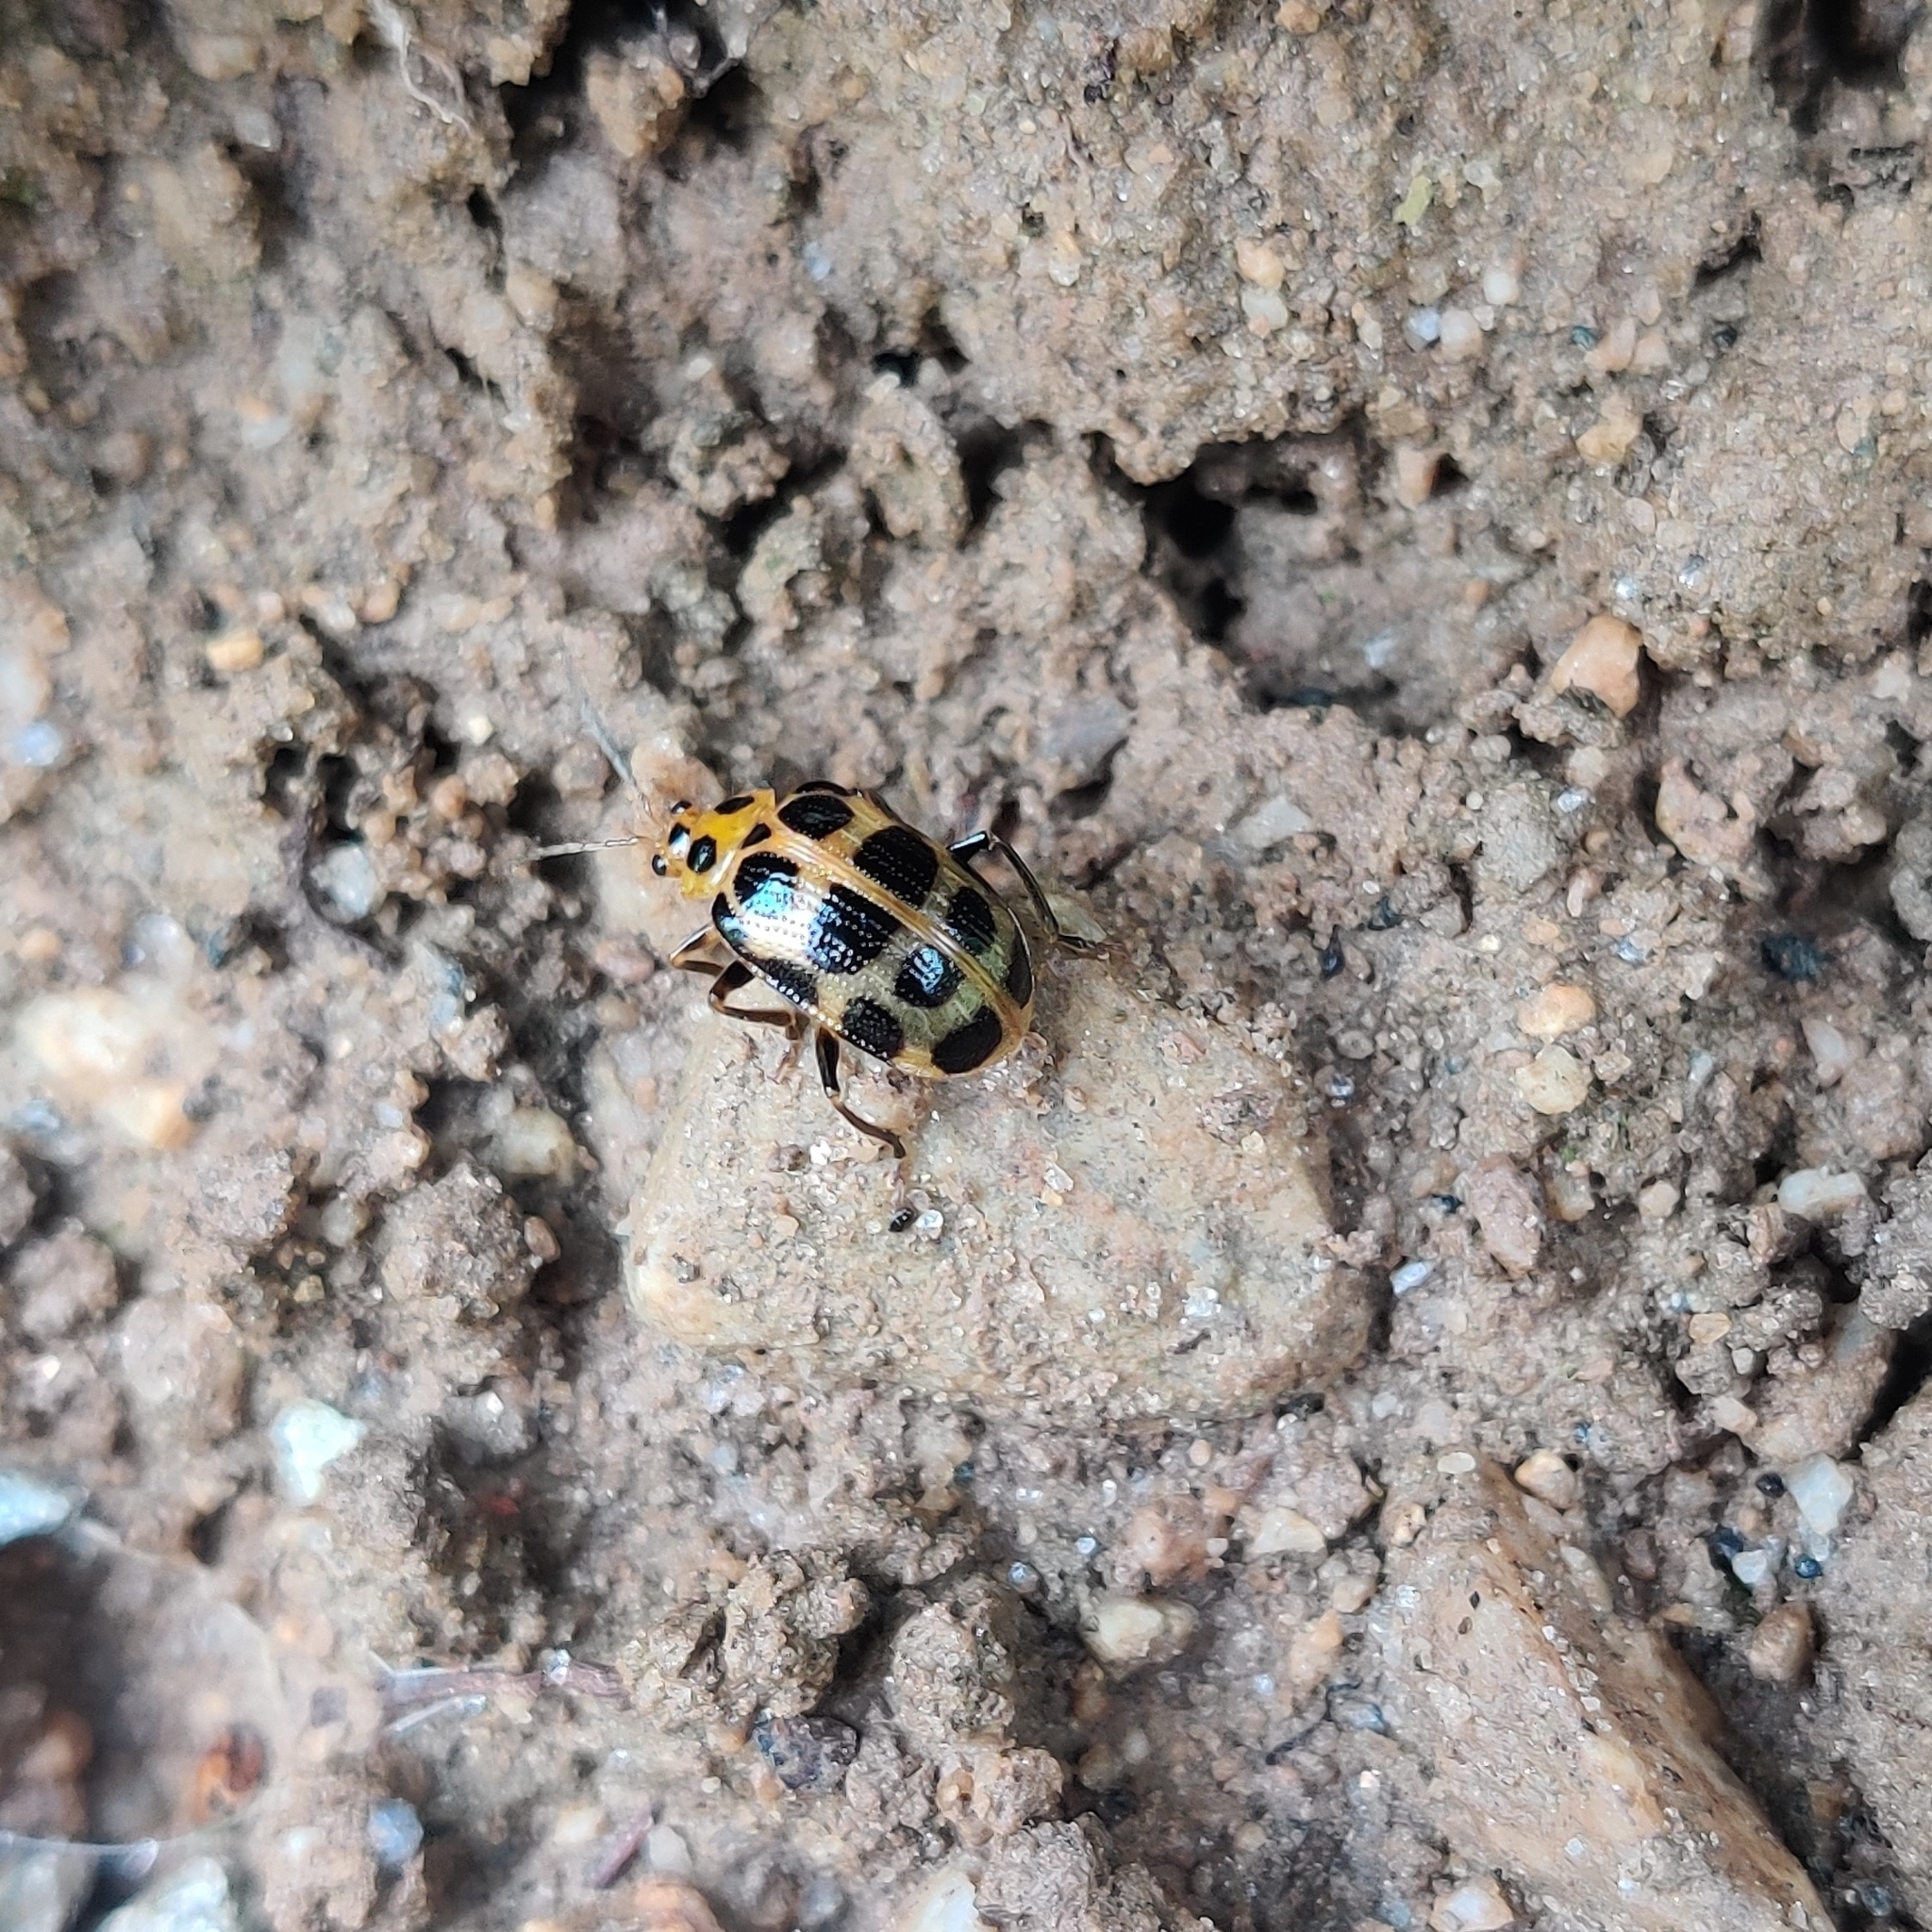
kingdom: Animalia
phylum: Arthropoda
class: Insecta
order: Coleoptera
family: Chrysomelidae
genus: Sphenoraia
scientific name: Sphenoraia
